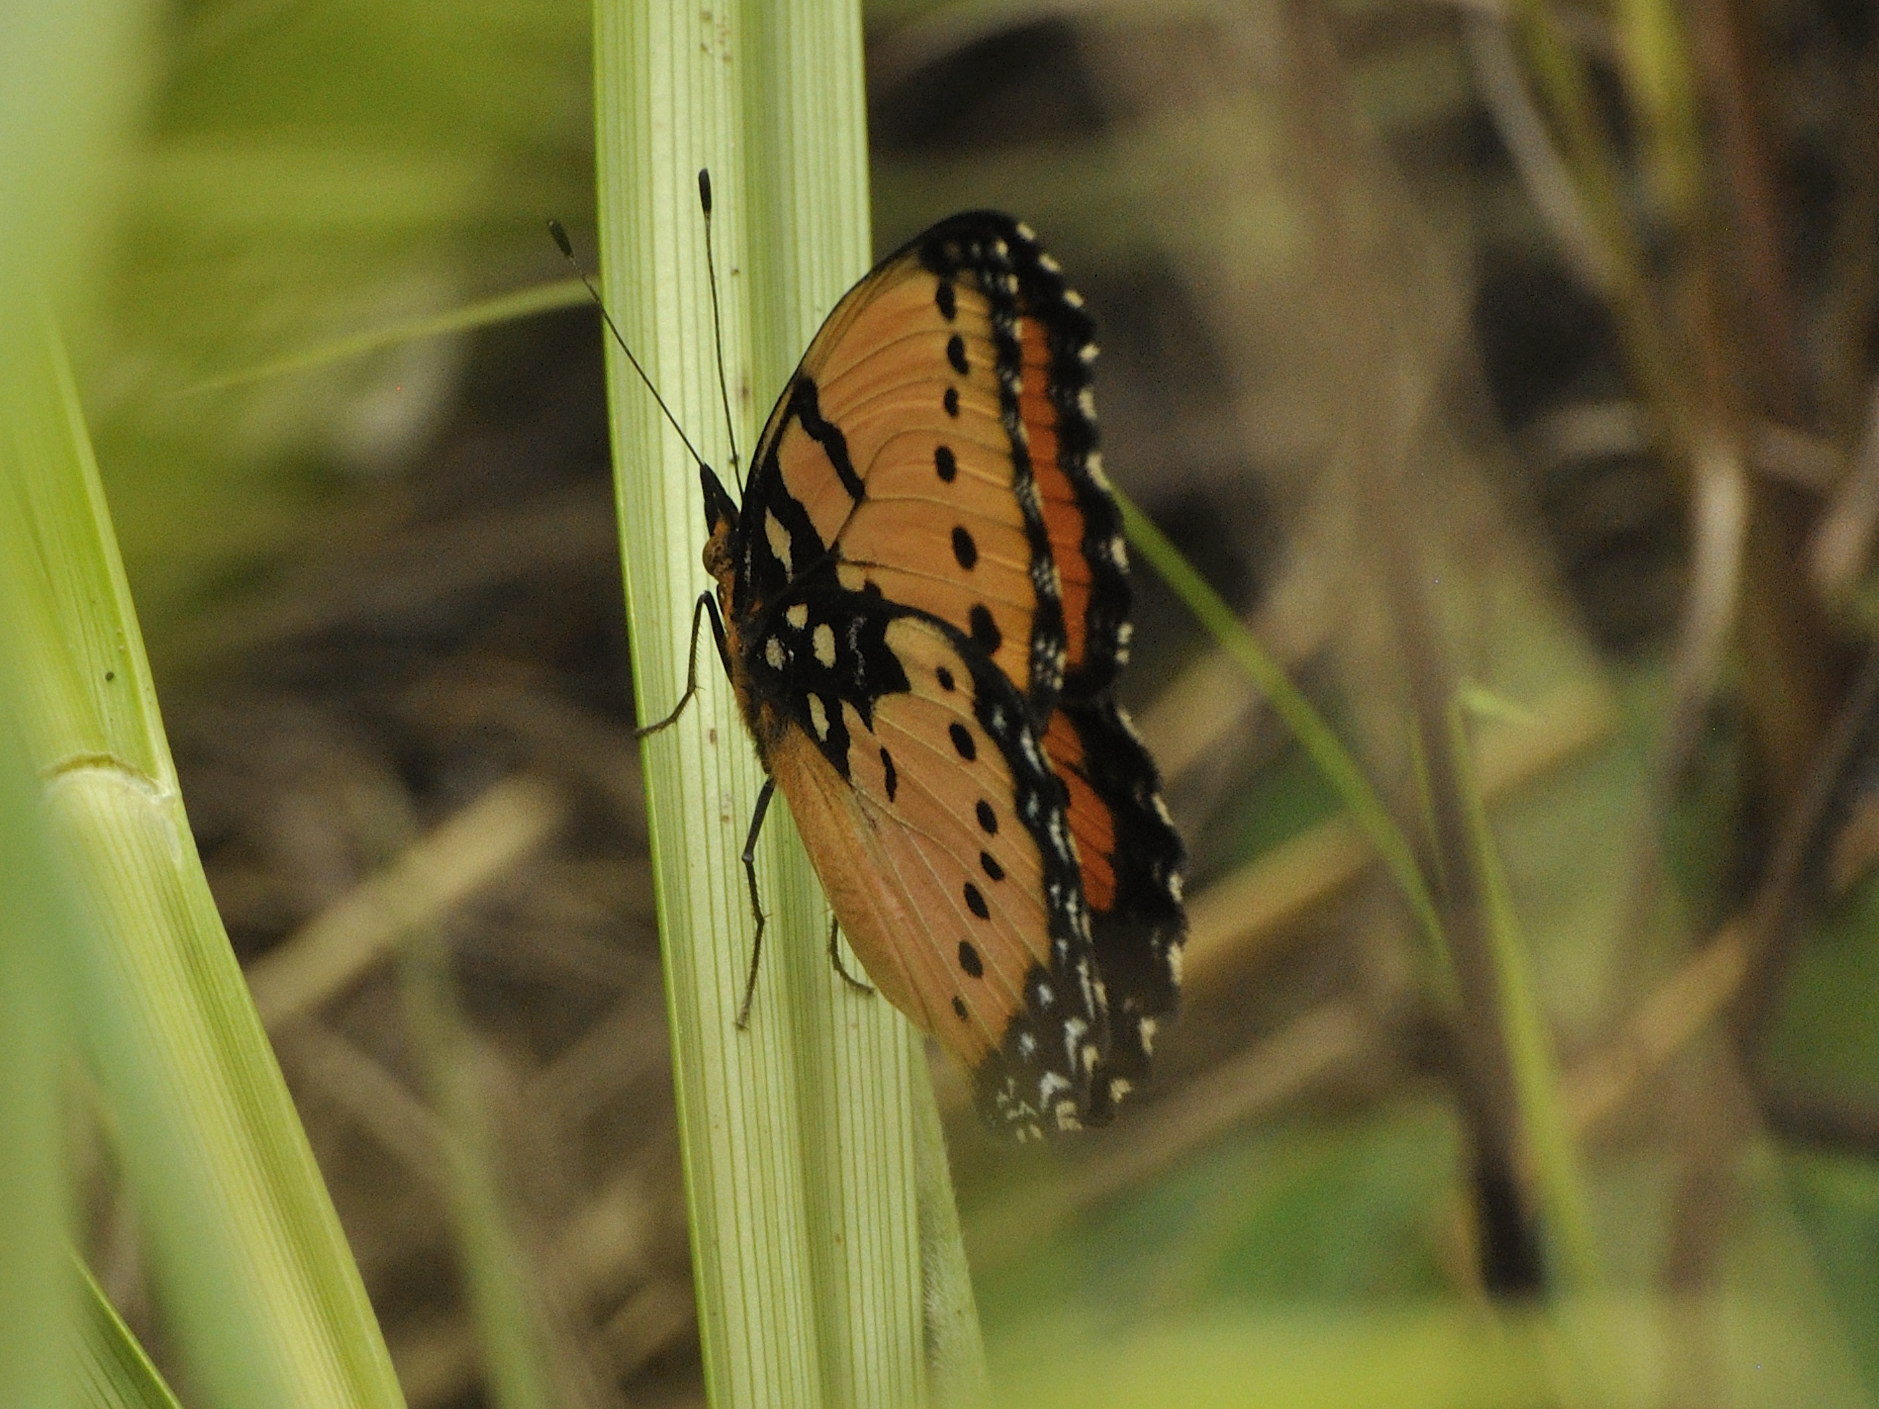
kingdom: Animalia
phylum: Arthropoda
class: Insecta
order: Lepidoptera
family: Nymphalidae
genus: Precis
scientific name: Precis octavia
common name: Gaudy commodore
